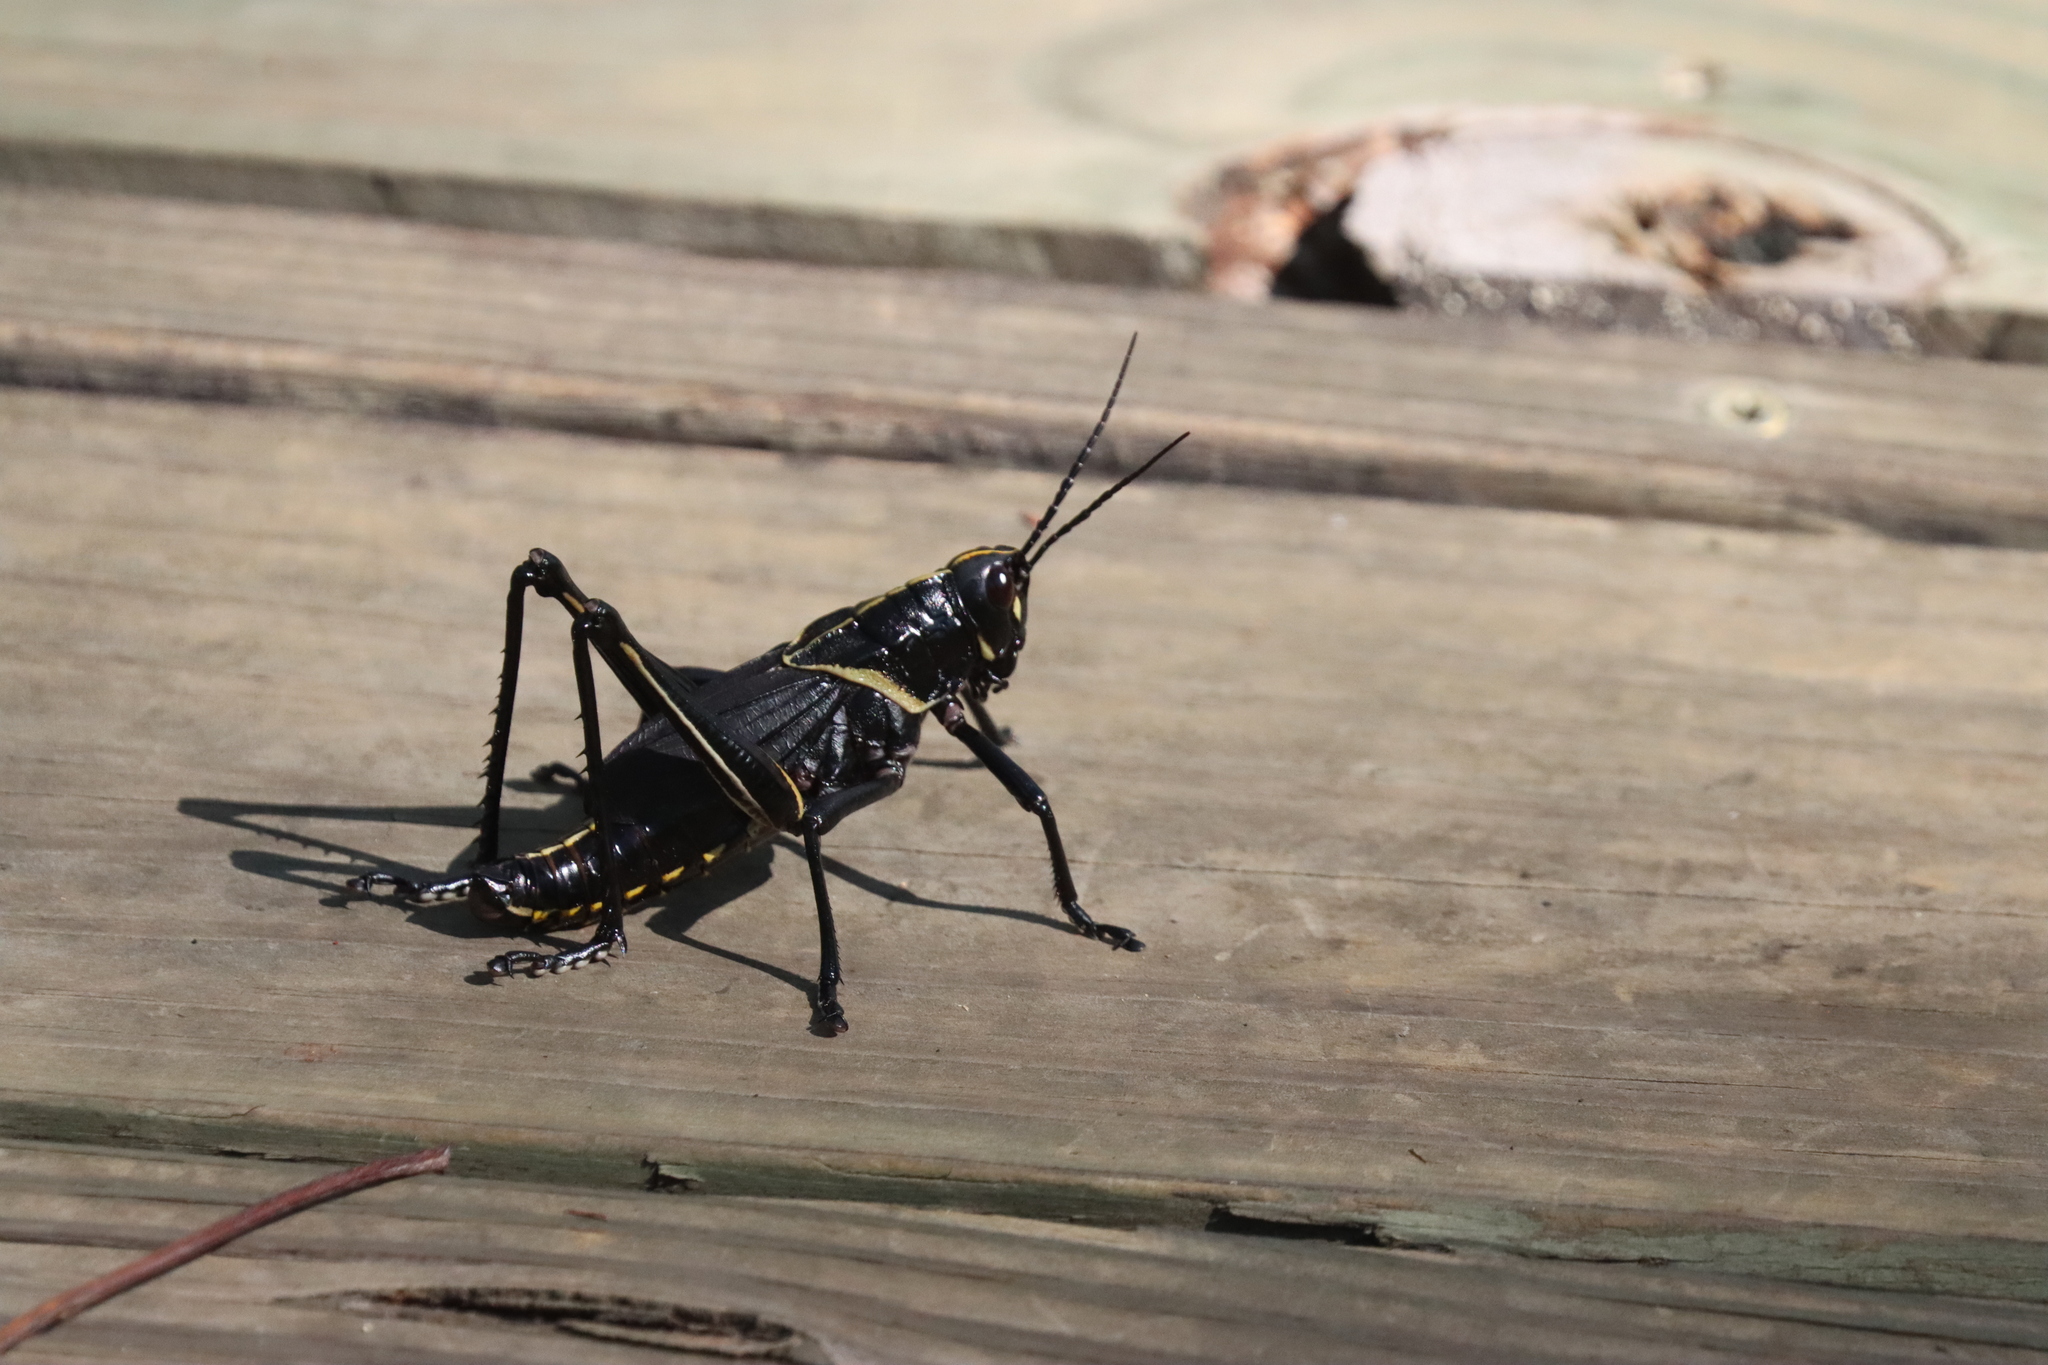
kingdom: Animalia
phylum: Arthropoda
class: Insecta
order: Orthoptera
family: Romaleidae
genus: Romalea
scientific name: Romalea microptera
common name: Eastern lubber grasshopper
